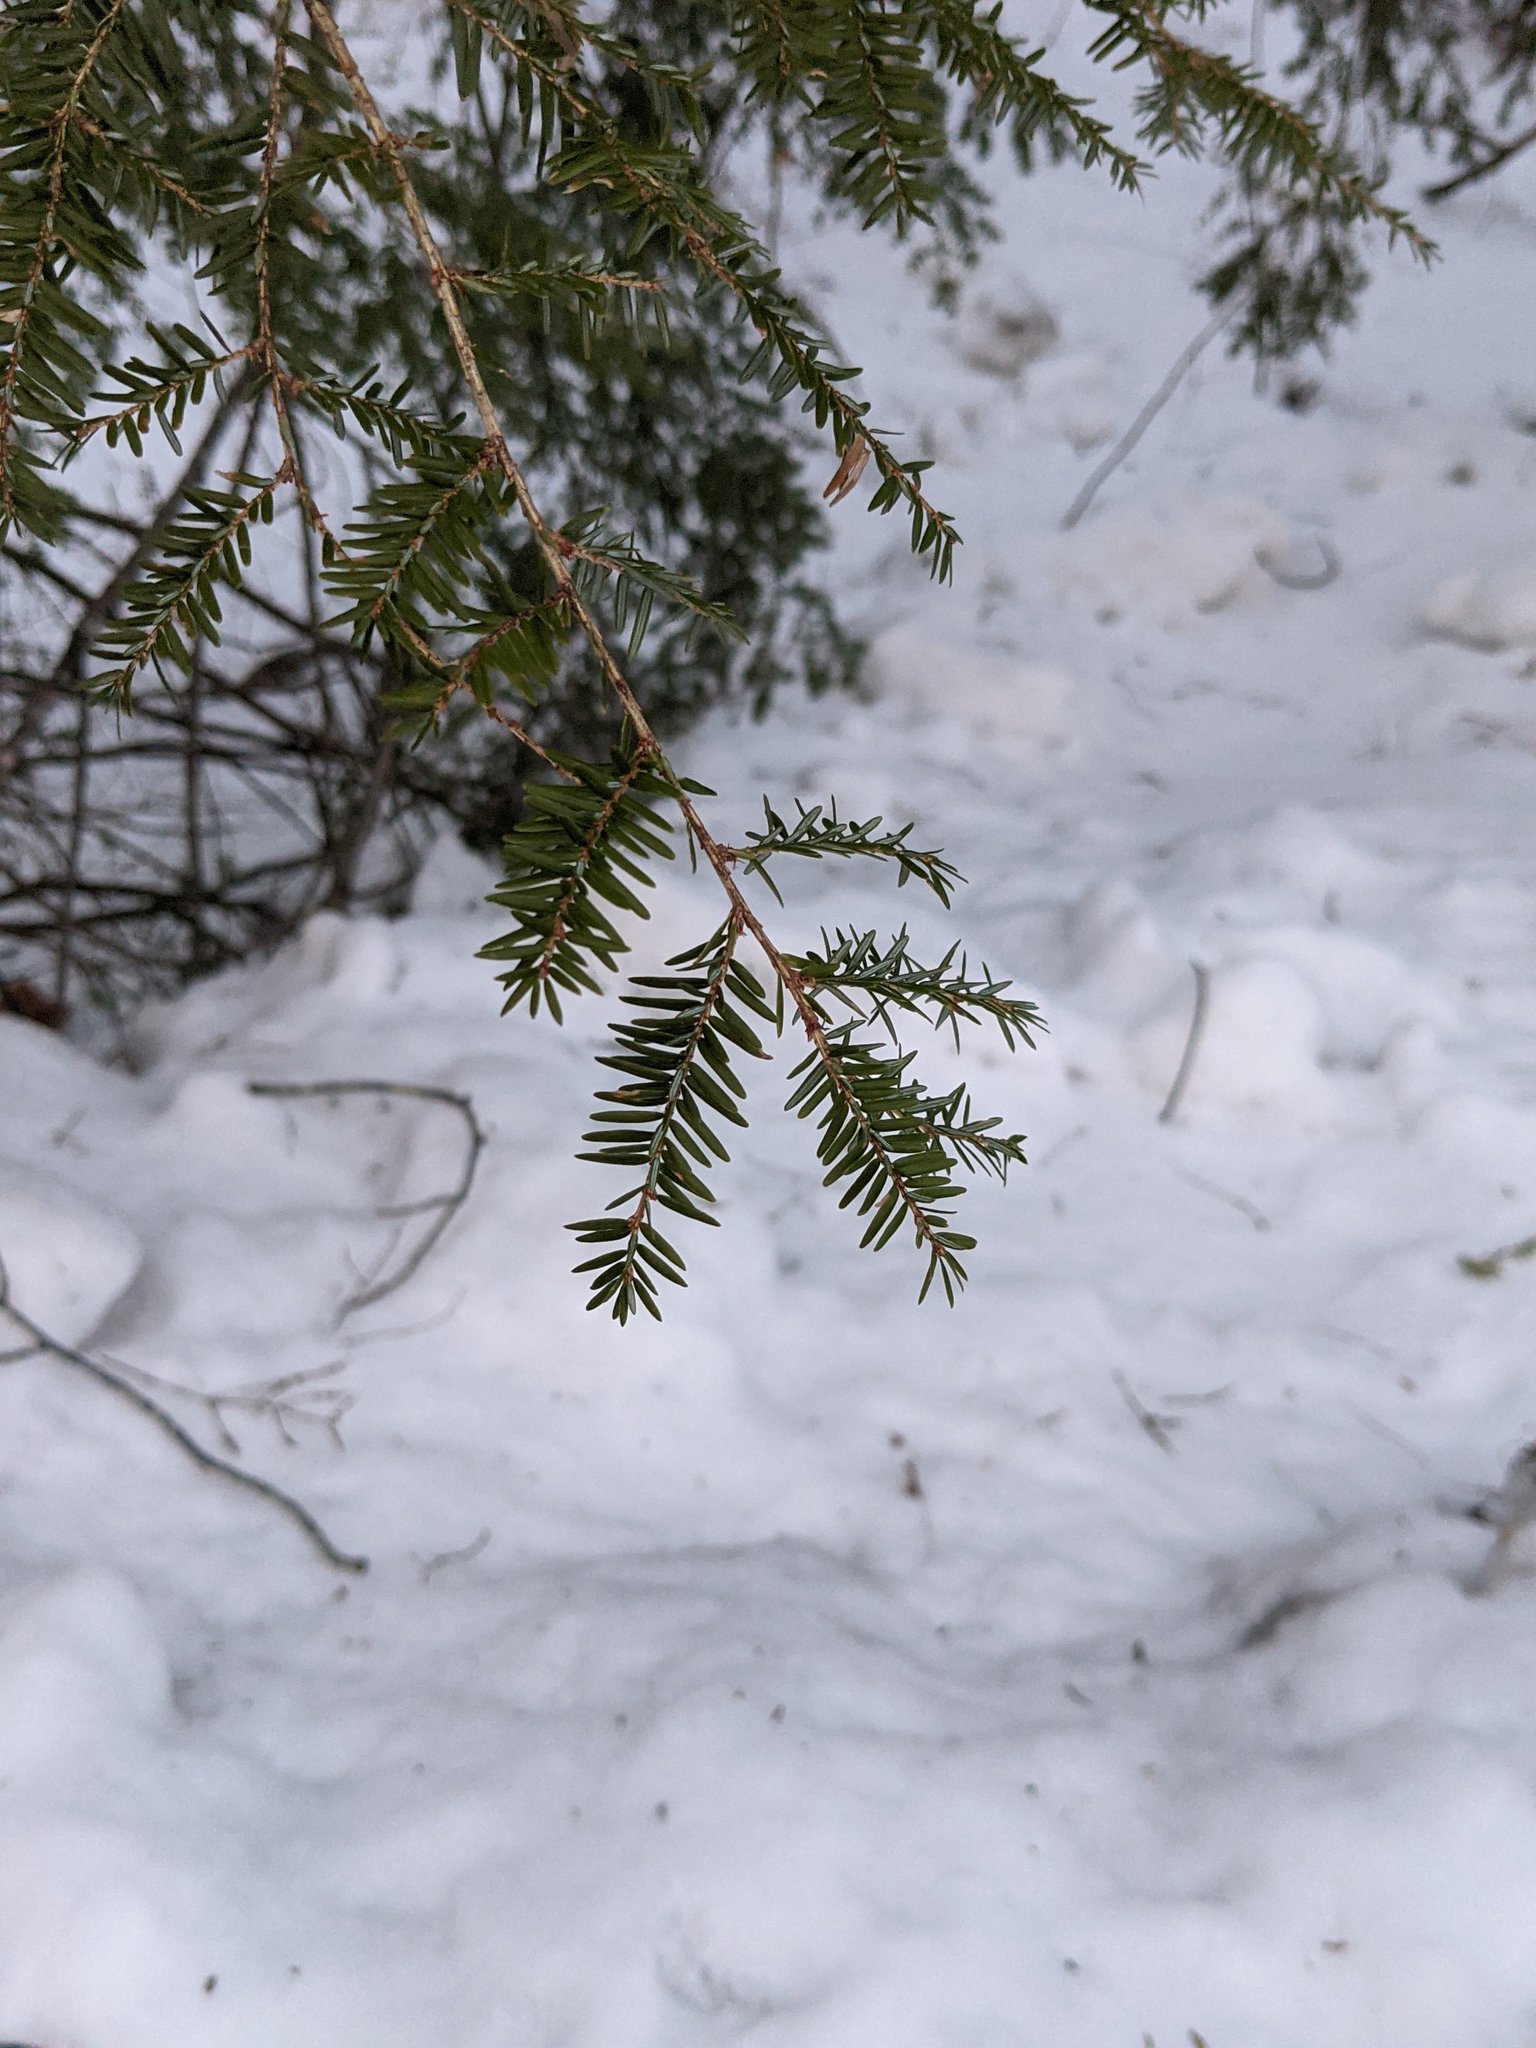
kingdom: Plantae
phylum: Tracheophyta
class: Pinopsida
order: Pinales
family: Pinaceae
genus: Tsuga
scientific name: Tsuga canadensis
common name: Eastern hemlock
